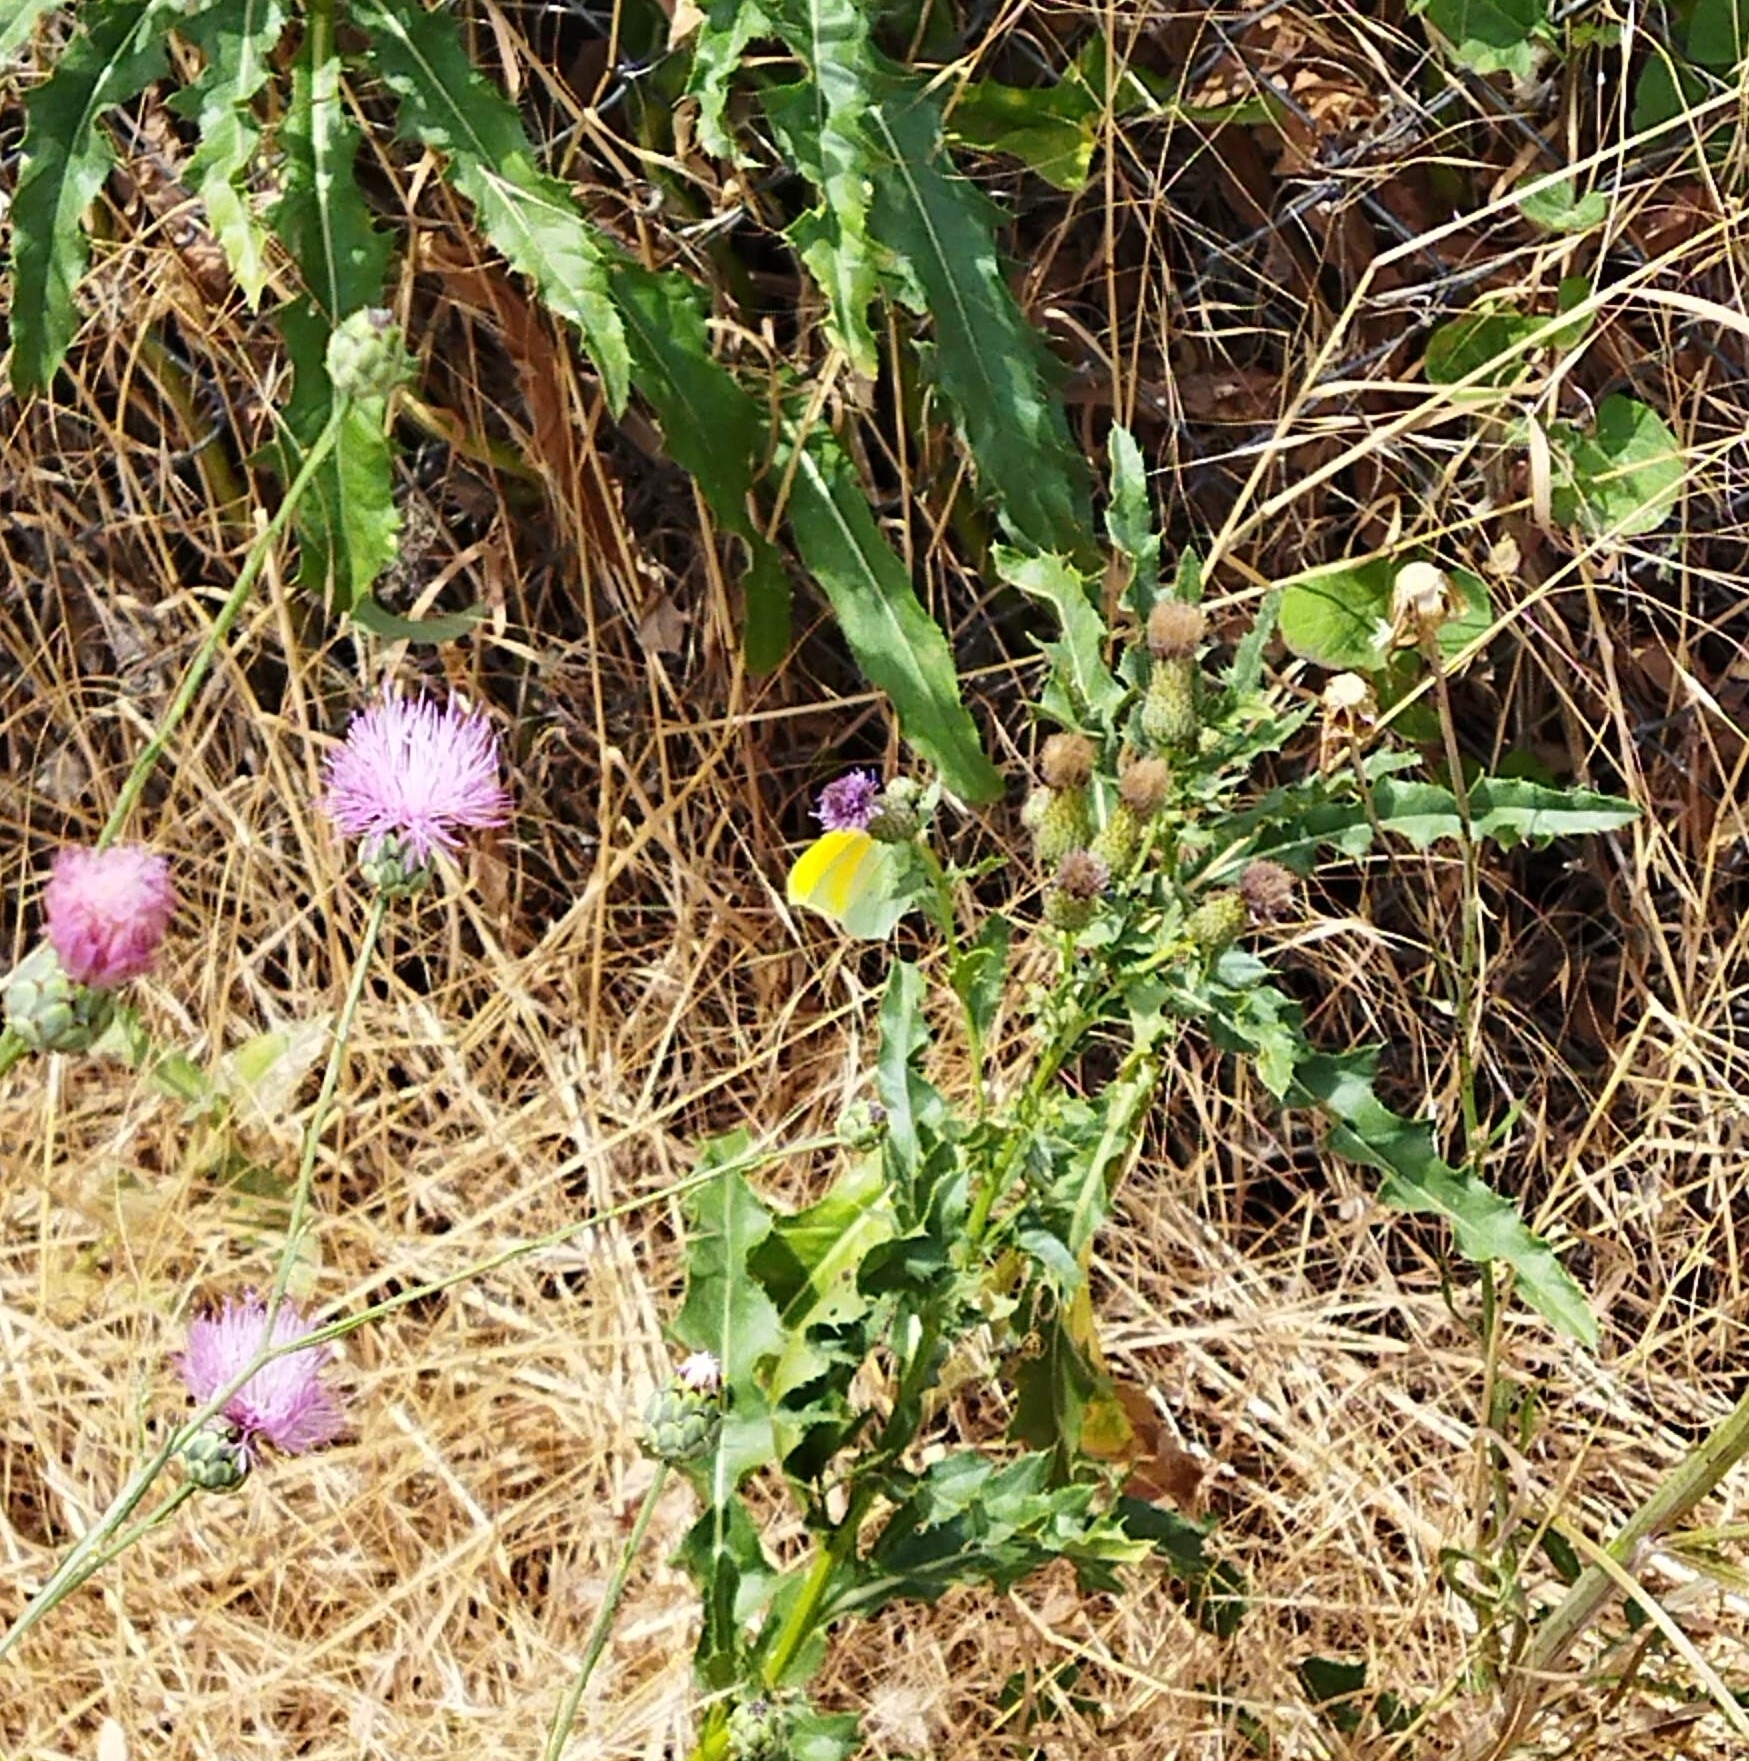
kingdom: Animalia
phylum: Arthropoda
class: Insecta
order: Lepidoptera
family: Pieridae
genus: Gonepteryx
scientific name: Gonepteryx cleopatra
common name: Cleopatra
